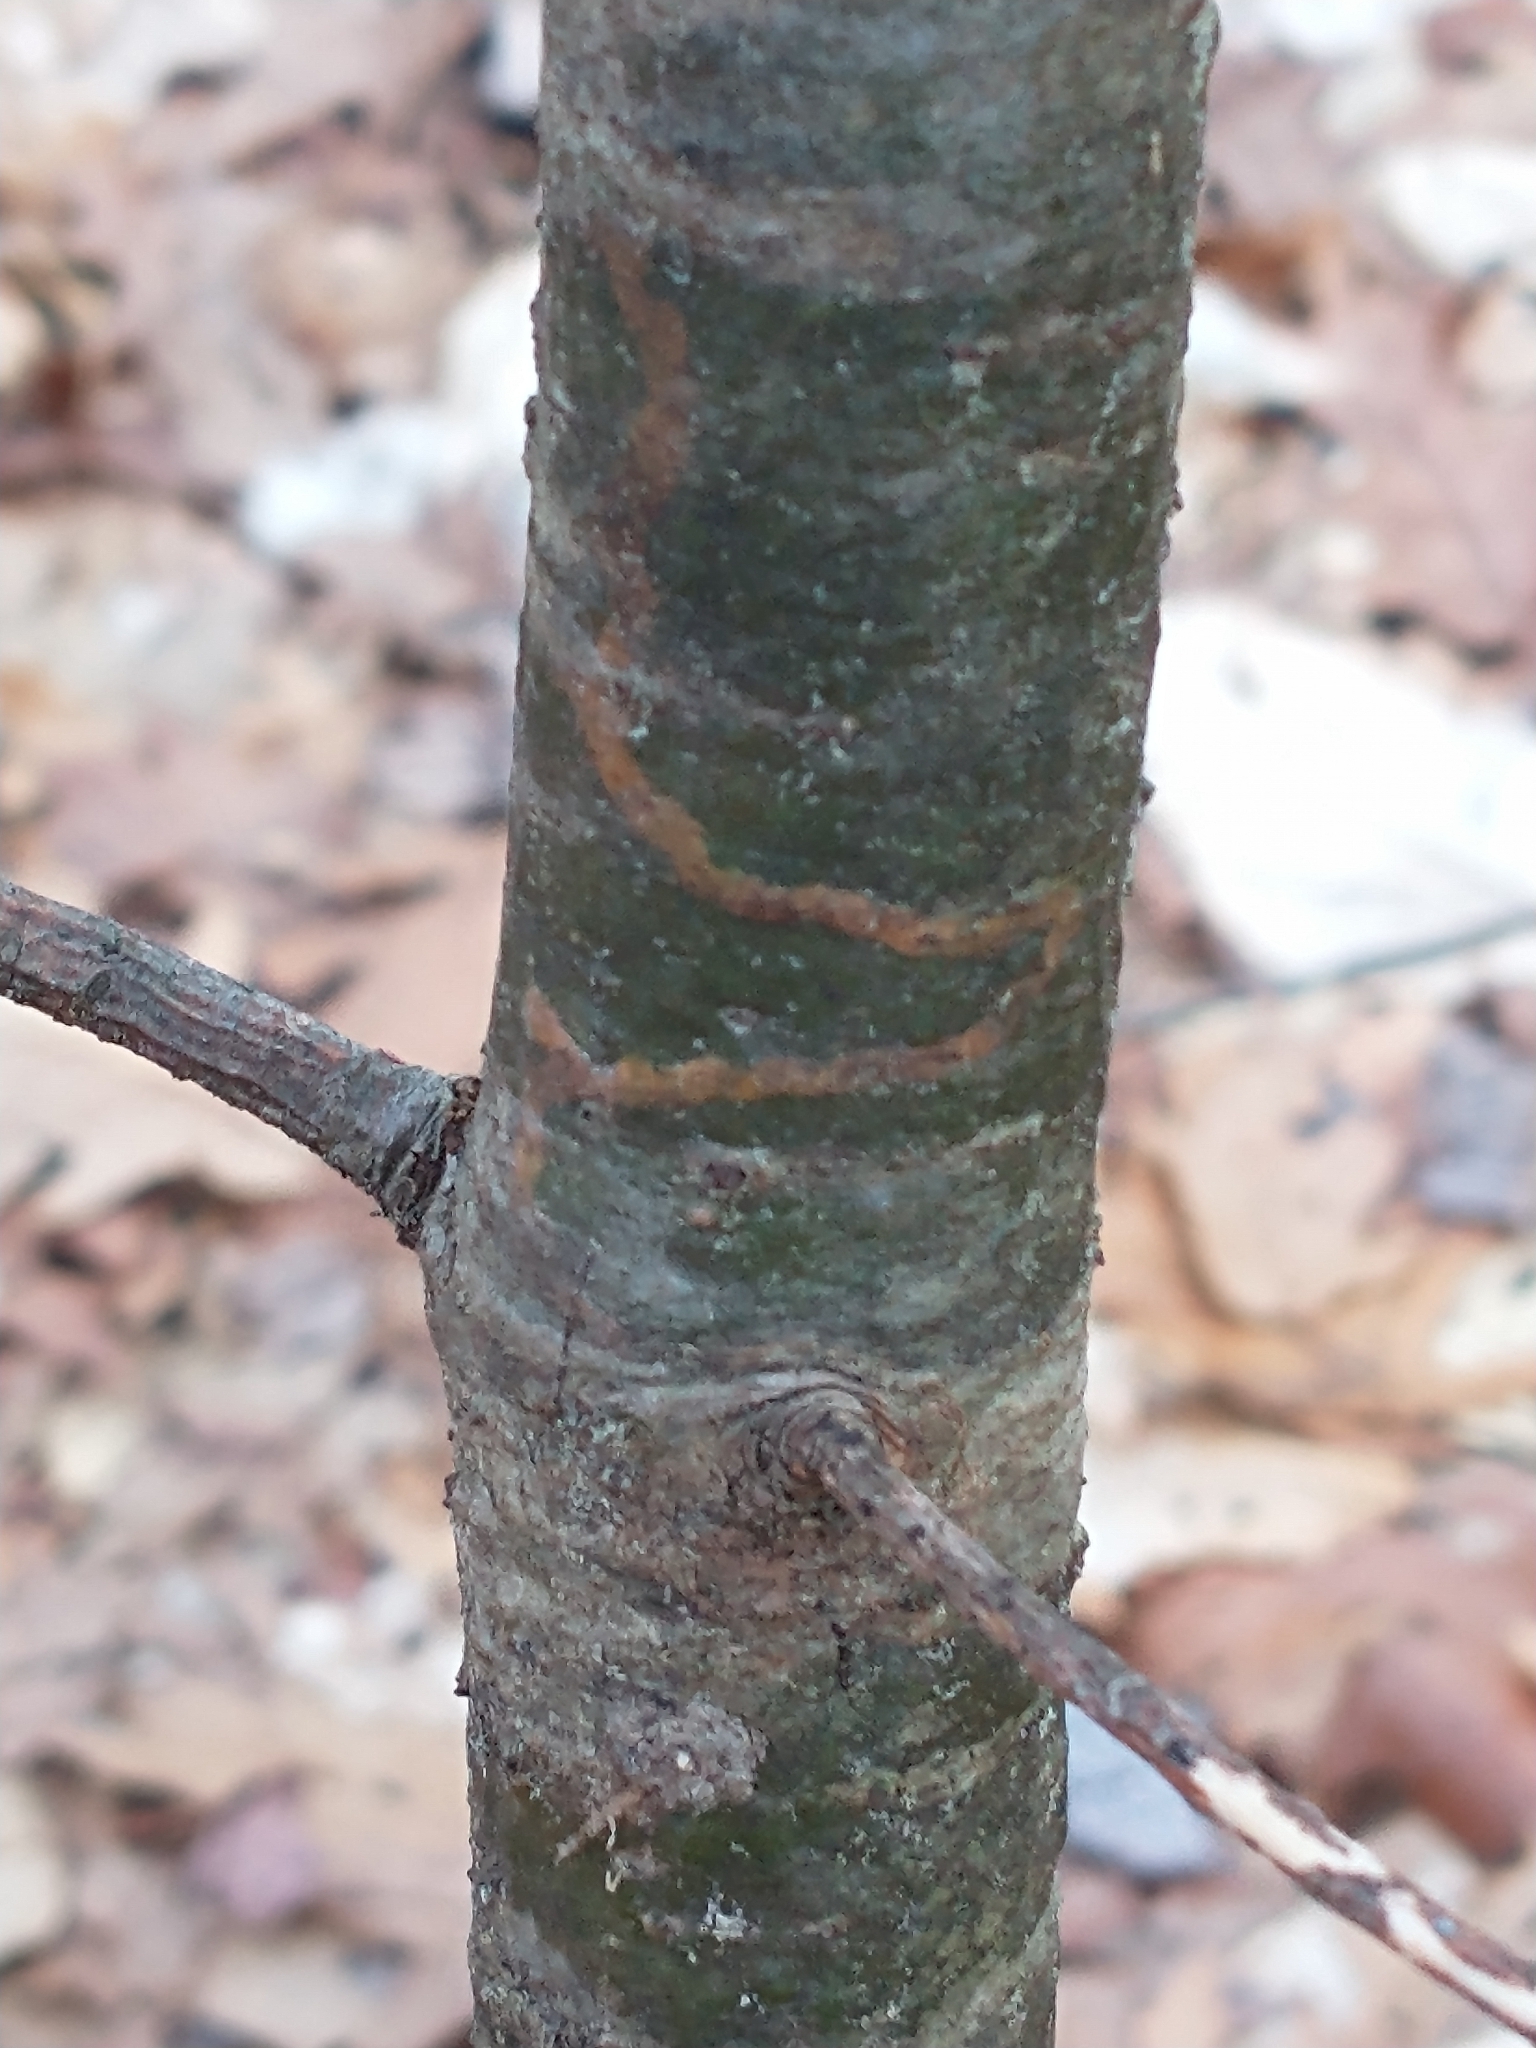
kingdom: Animalia
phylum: Arthropoda
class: Insecta
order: Lepidoptera
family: Gracillariidae
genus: Marmara
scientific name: Marmara fasciella
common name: White pine barkminer moth
